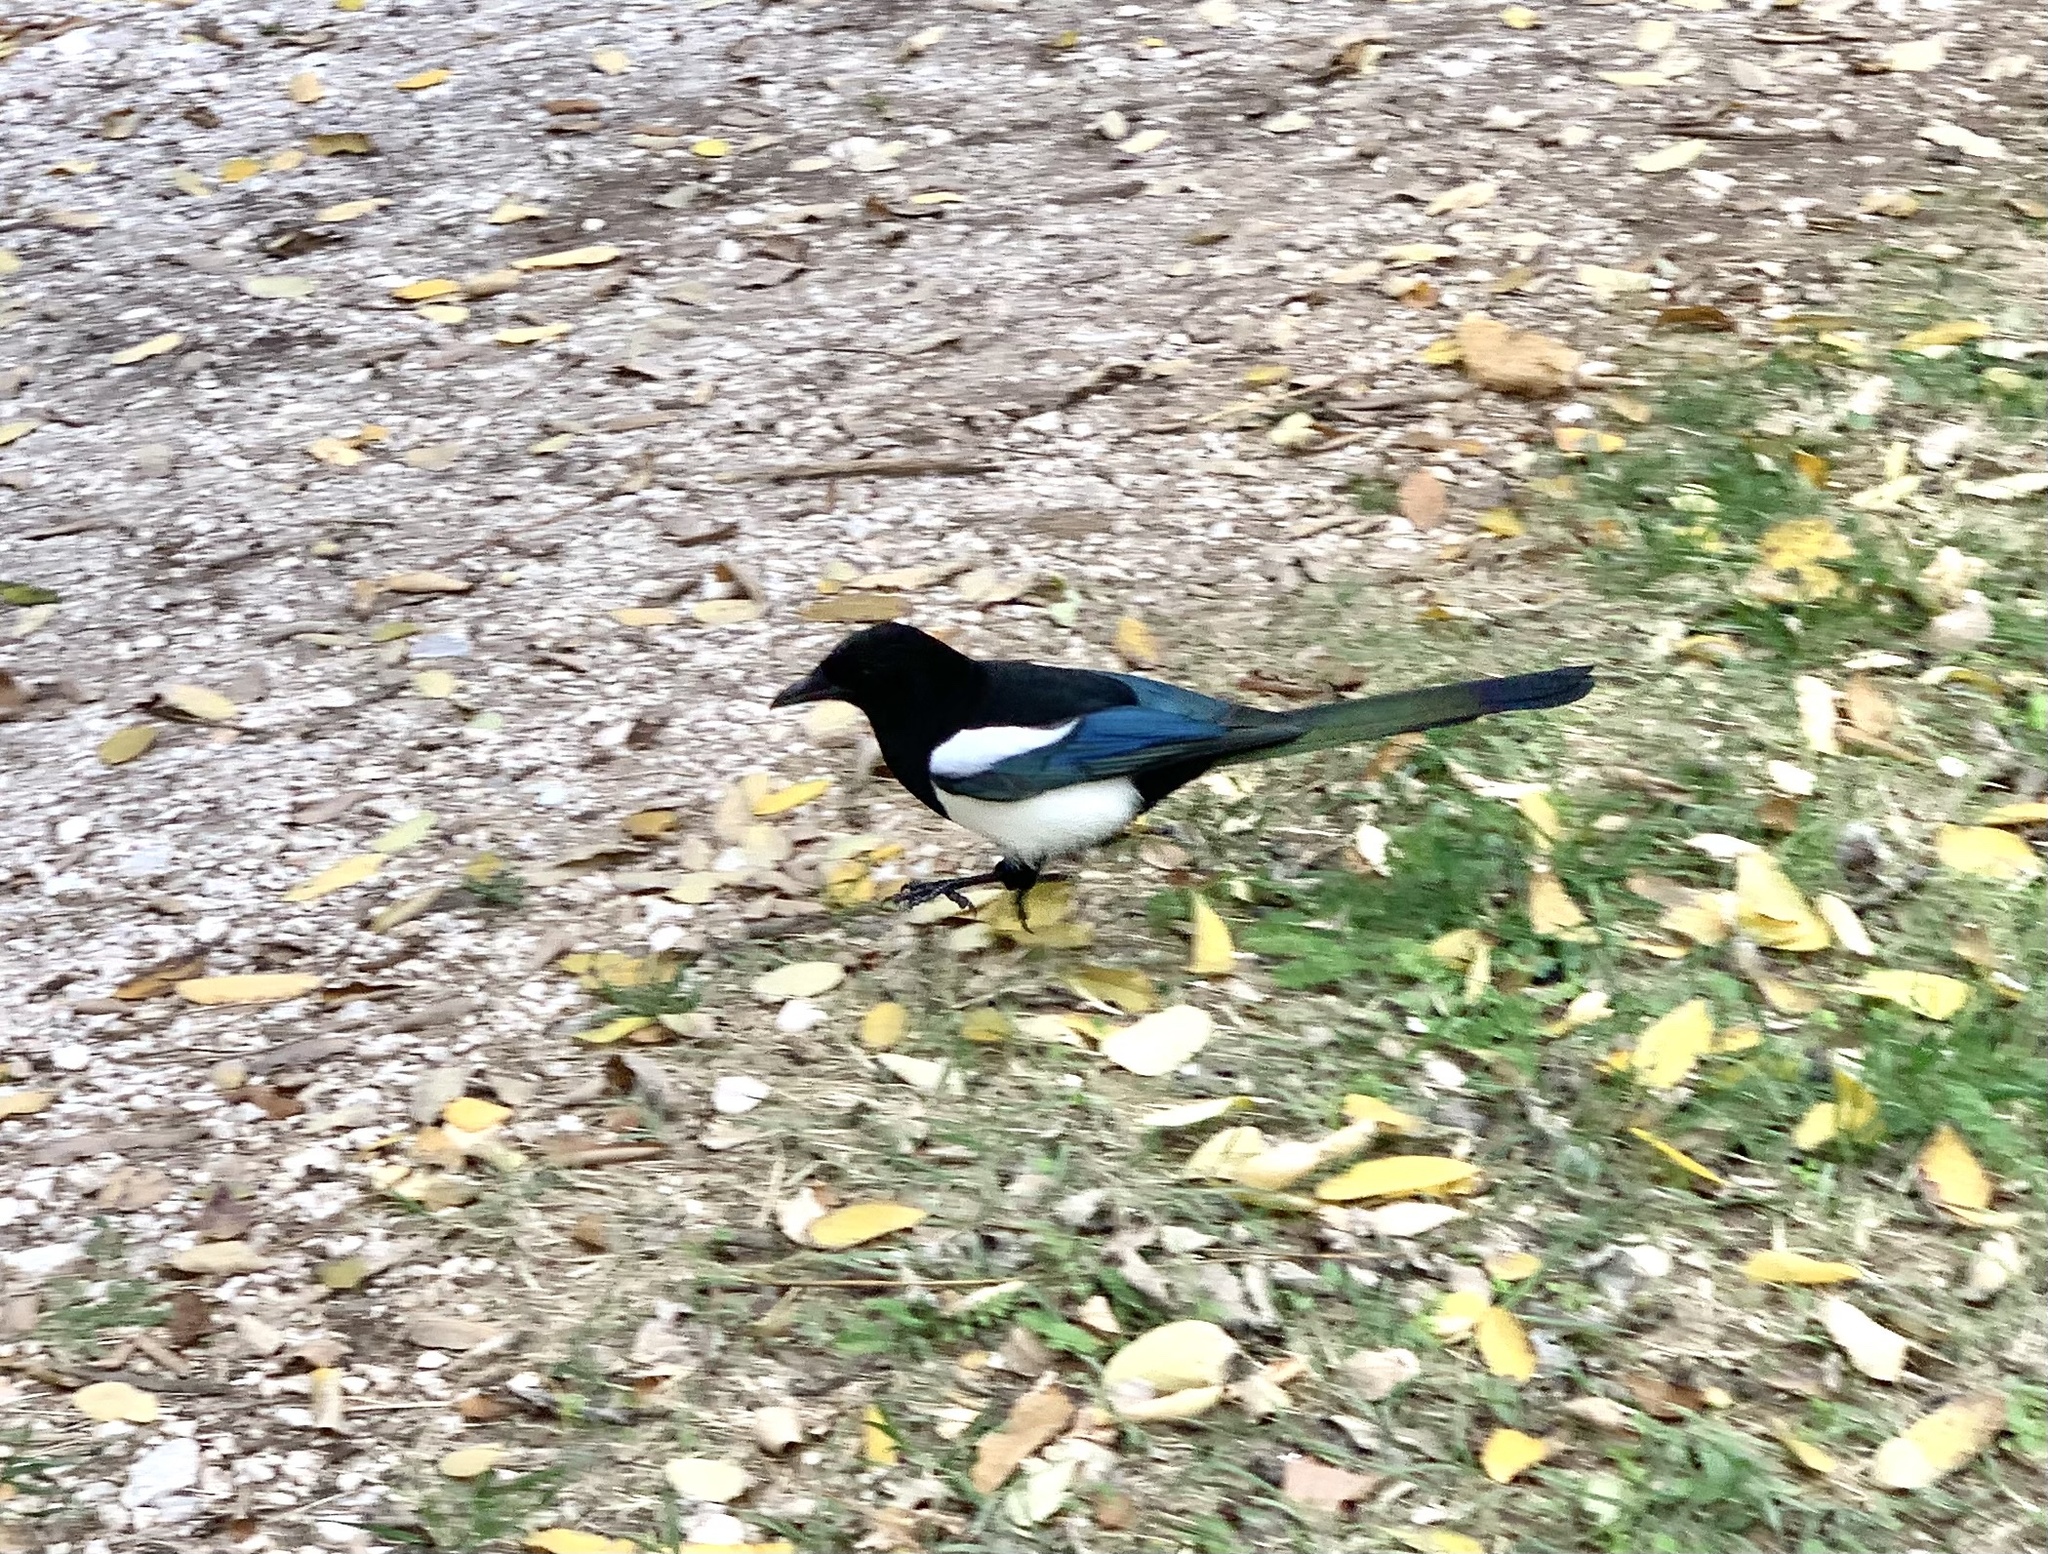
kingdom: Animalia
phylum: Chordata
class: Aves
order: Passeriformes
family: Corvidae
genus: Pica
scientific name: Pica pica
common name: Eurasian magpie
